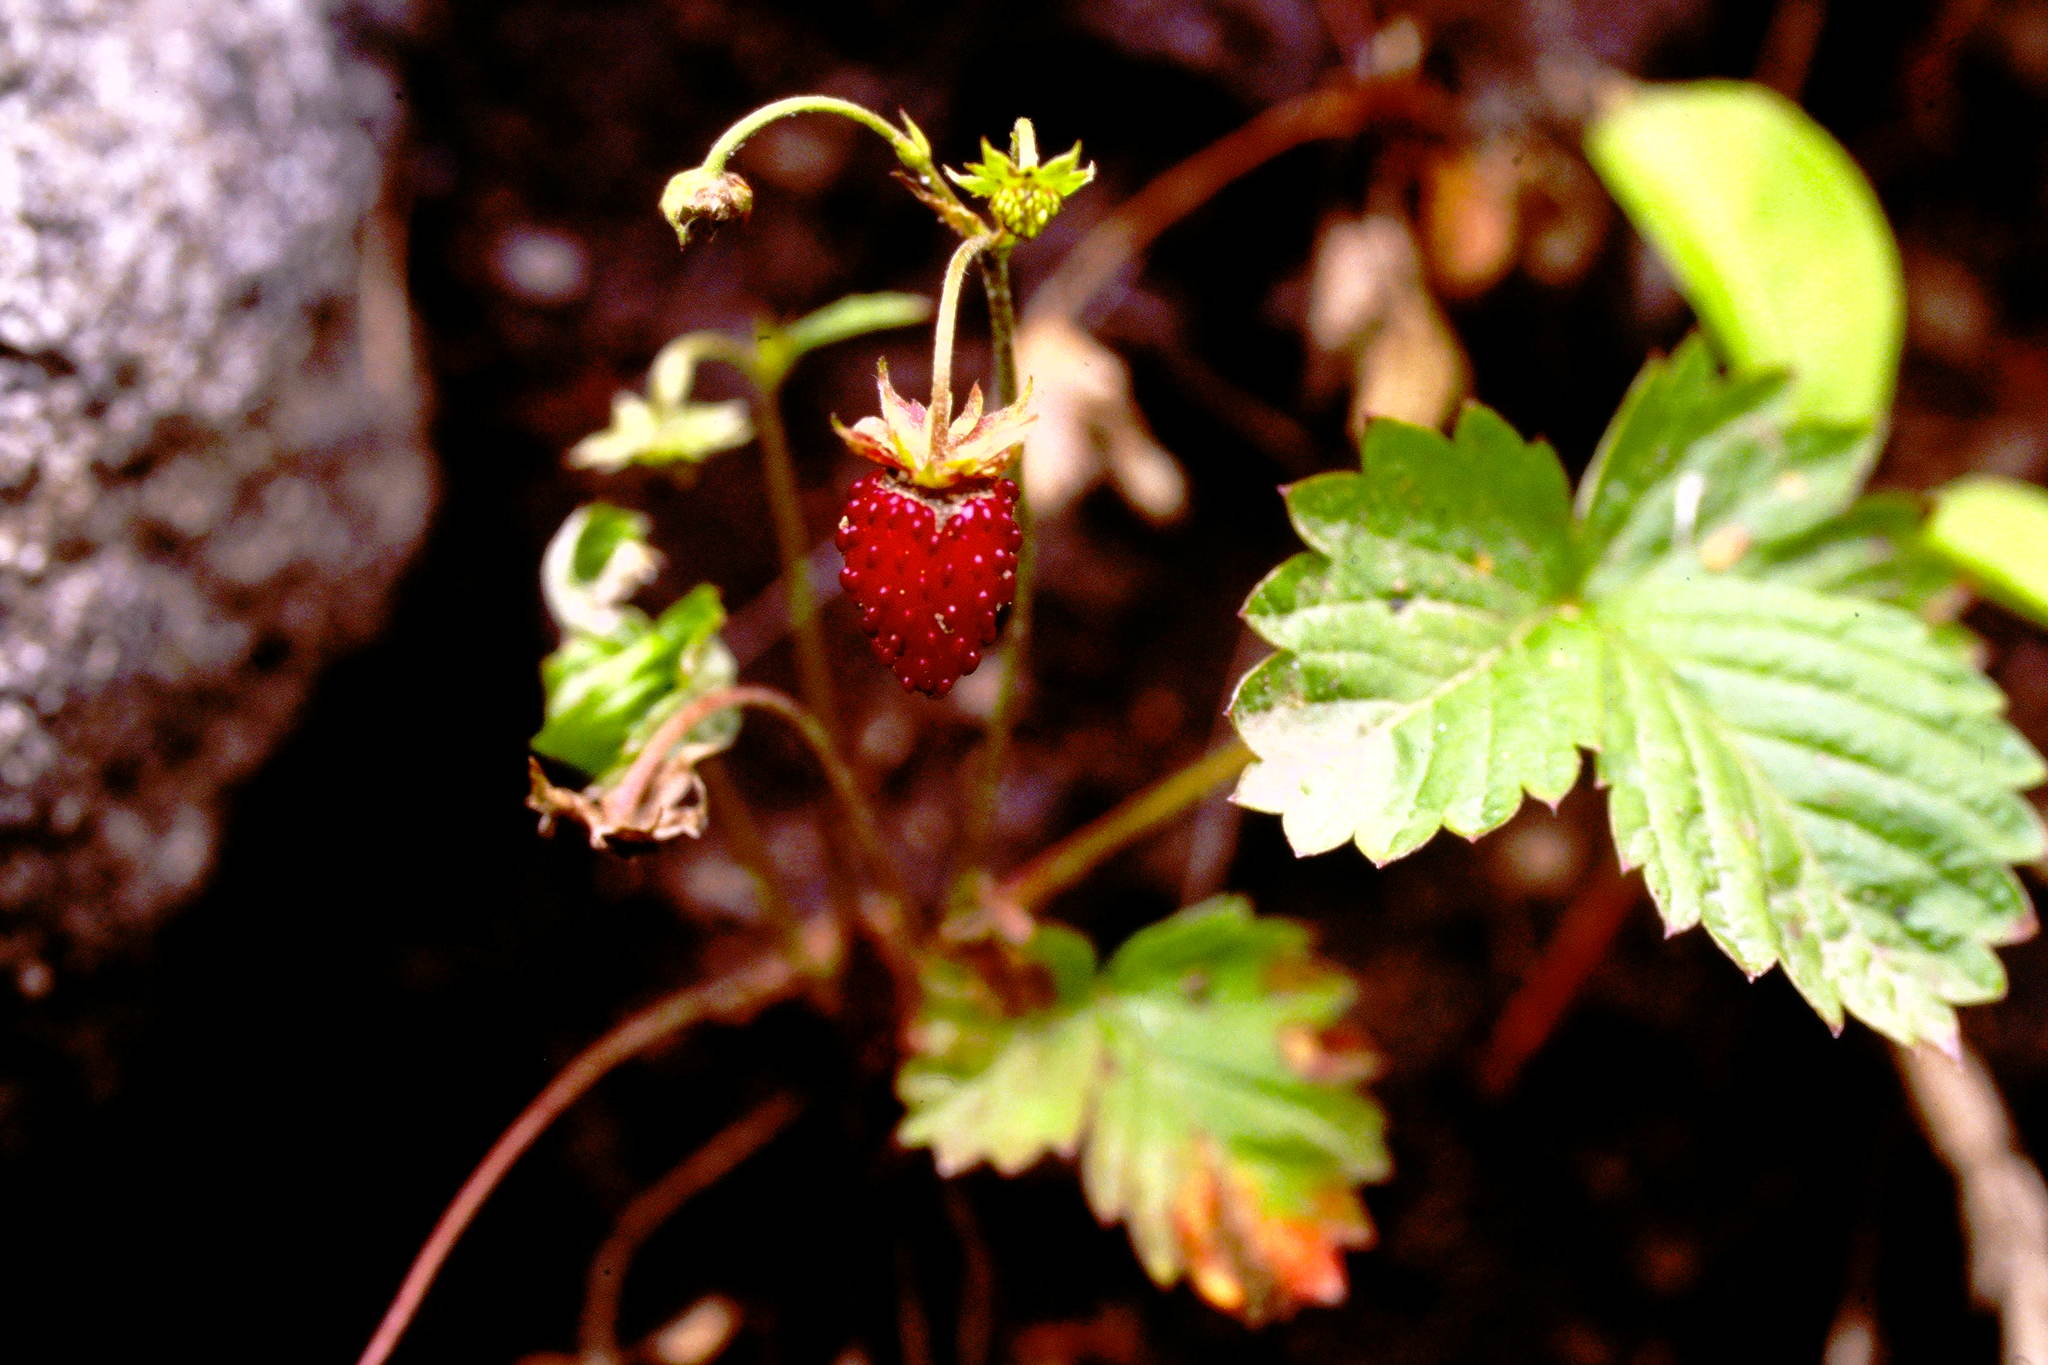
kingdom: Plantae
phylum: Tracheophyta
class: Magnoliopsida
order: Rosales
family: Rosaceae
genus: Fragaria
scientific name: Fragaria vesca
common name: Wild strawberry
